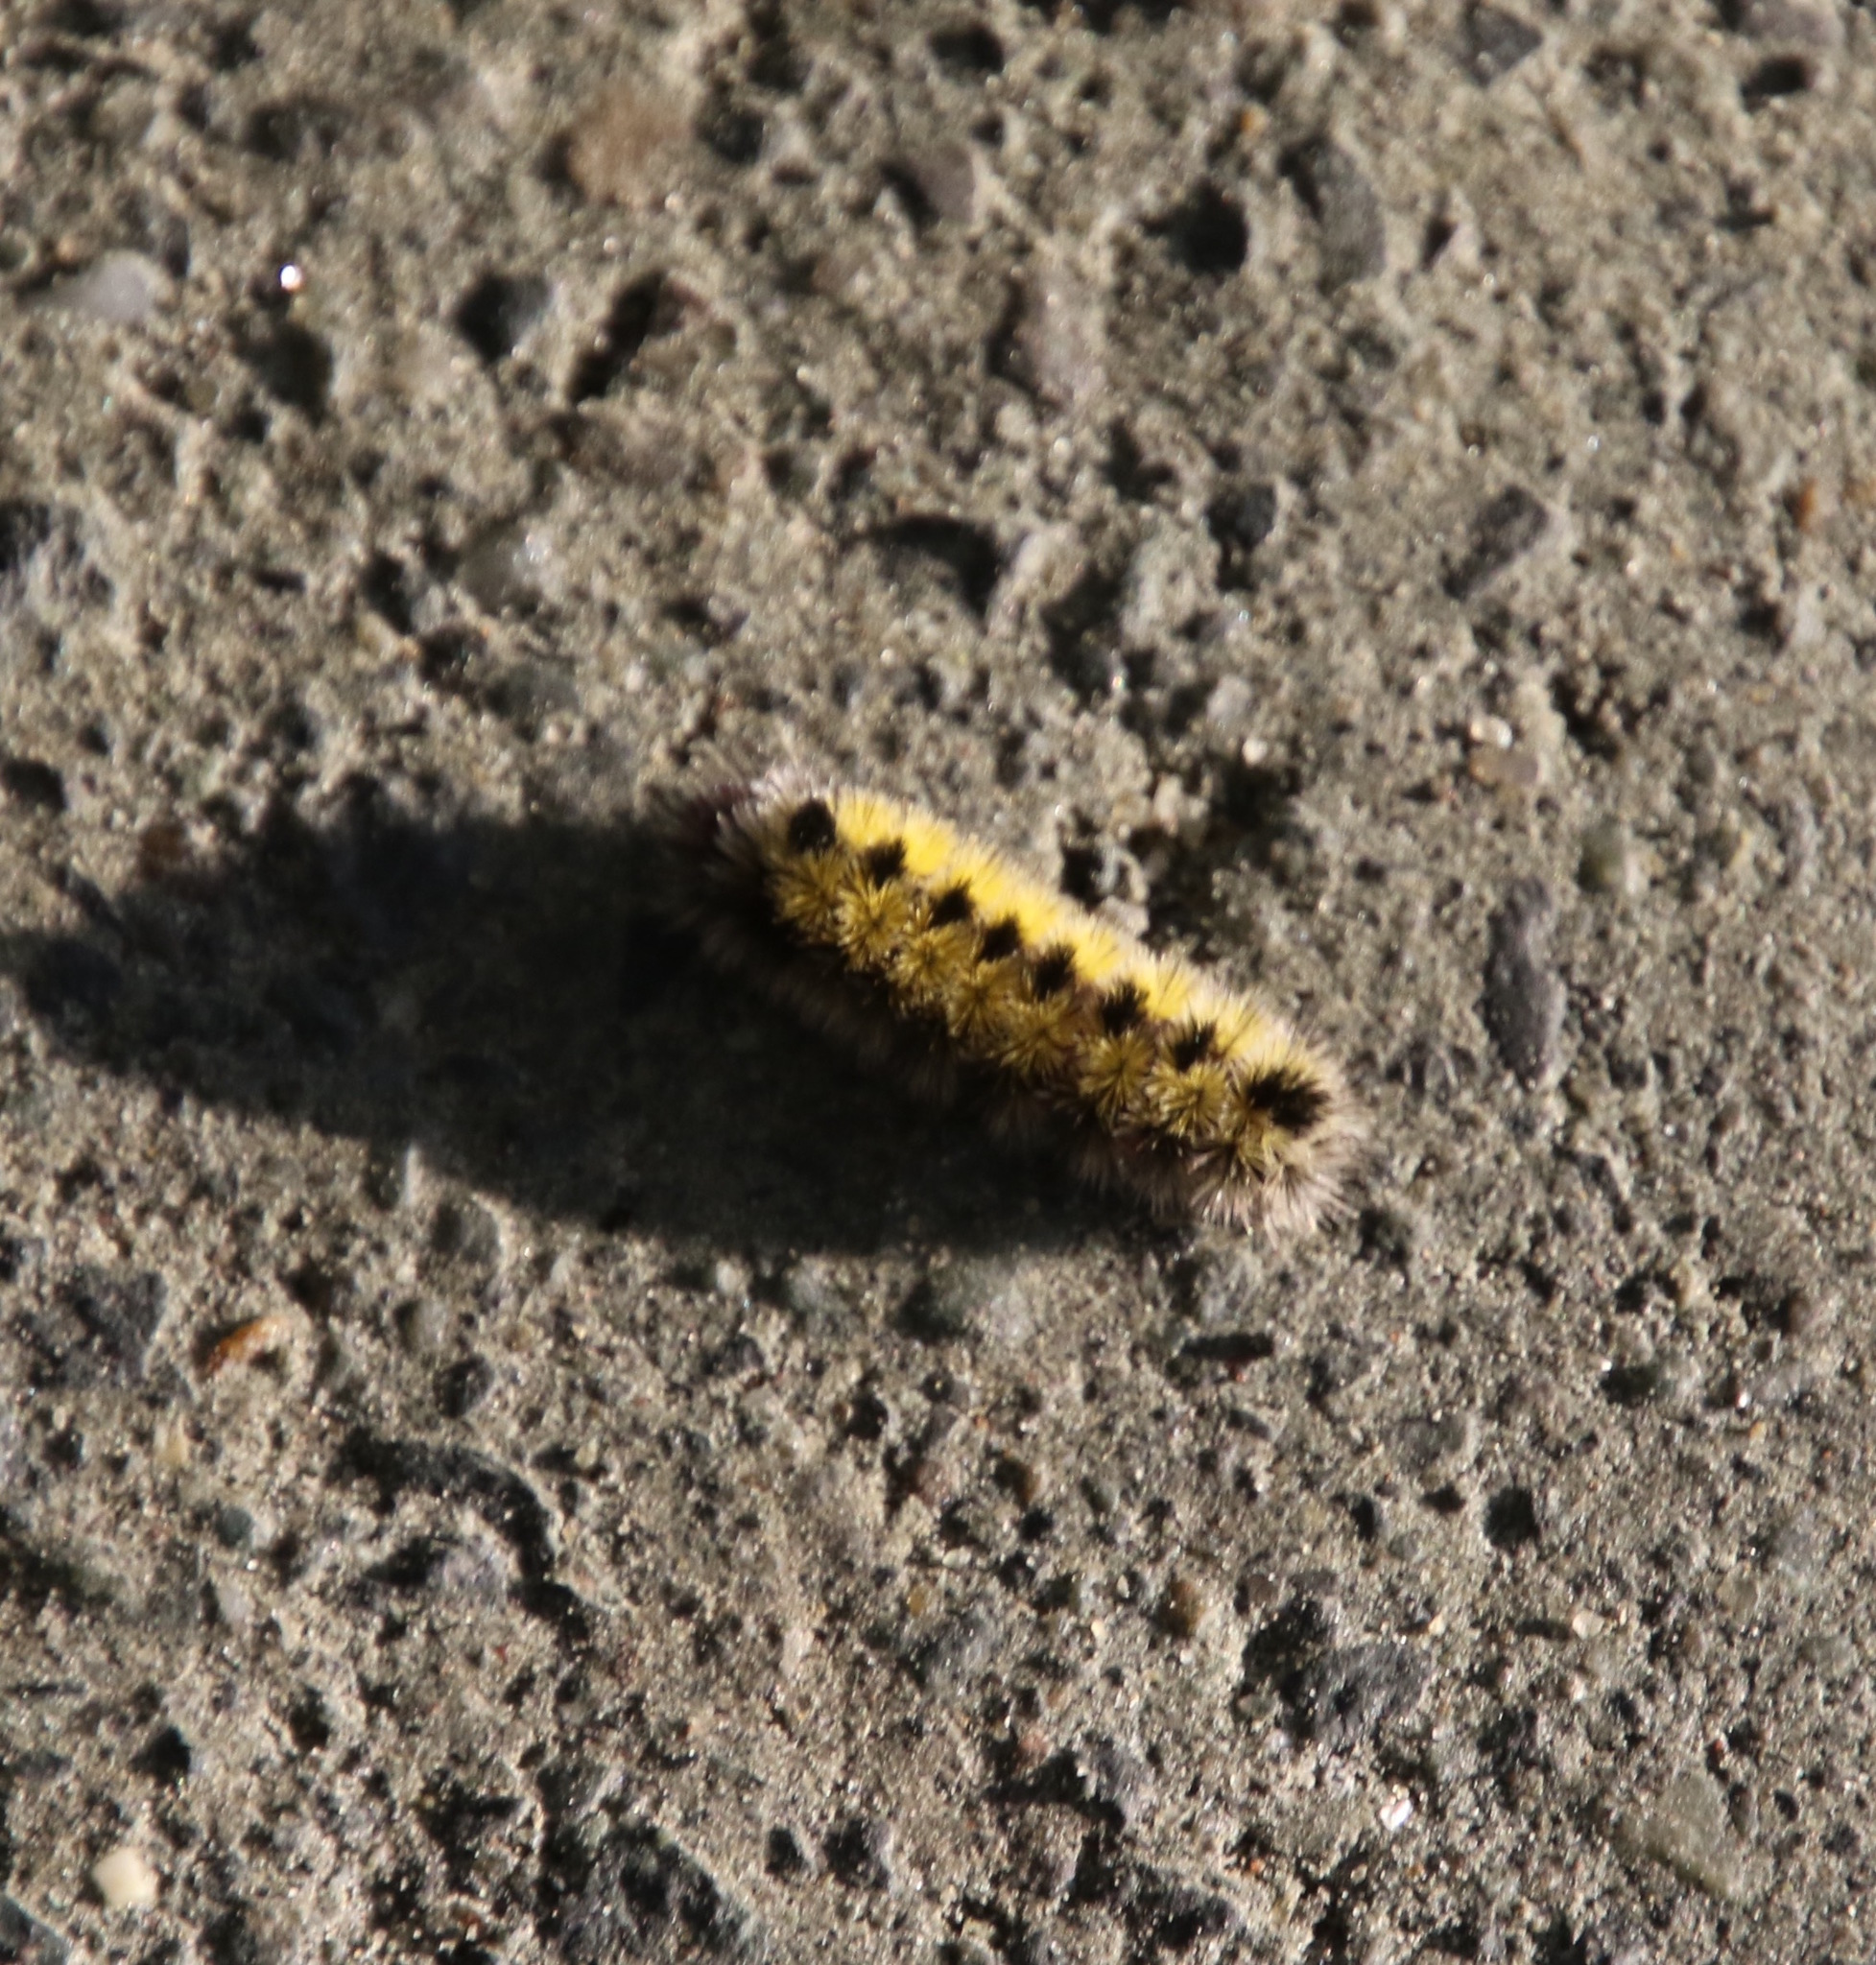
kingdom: Animalia
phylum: Arthropoda
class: Insecta
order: Lepidoptera
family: Erebidae
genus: Ctenucha
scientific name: Ctenucha virginica
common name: Virginia ctenucha moth
